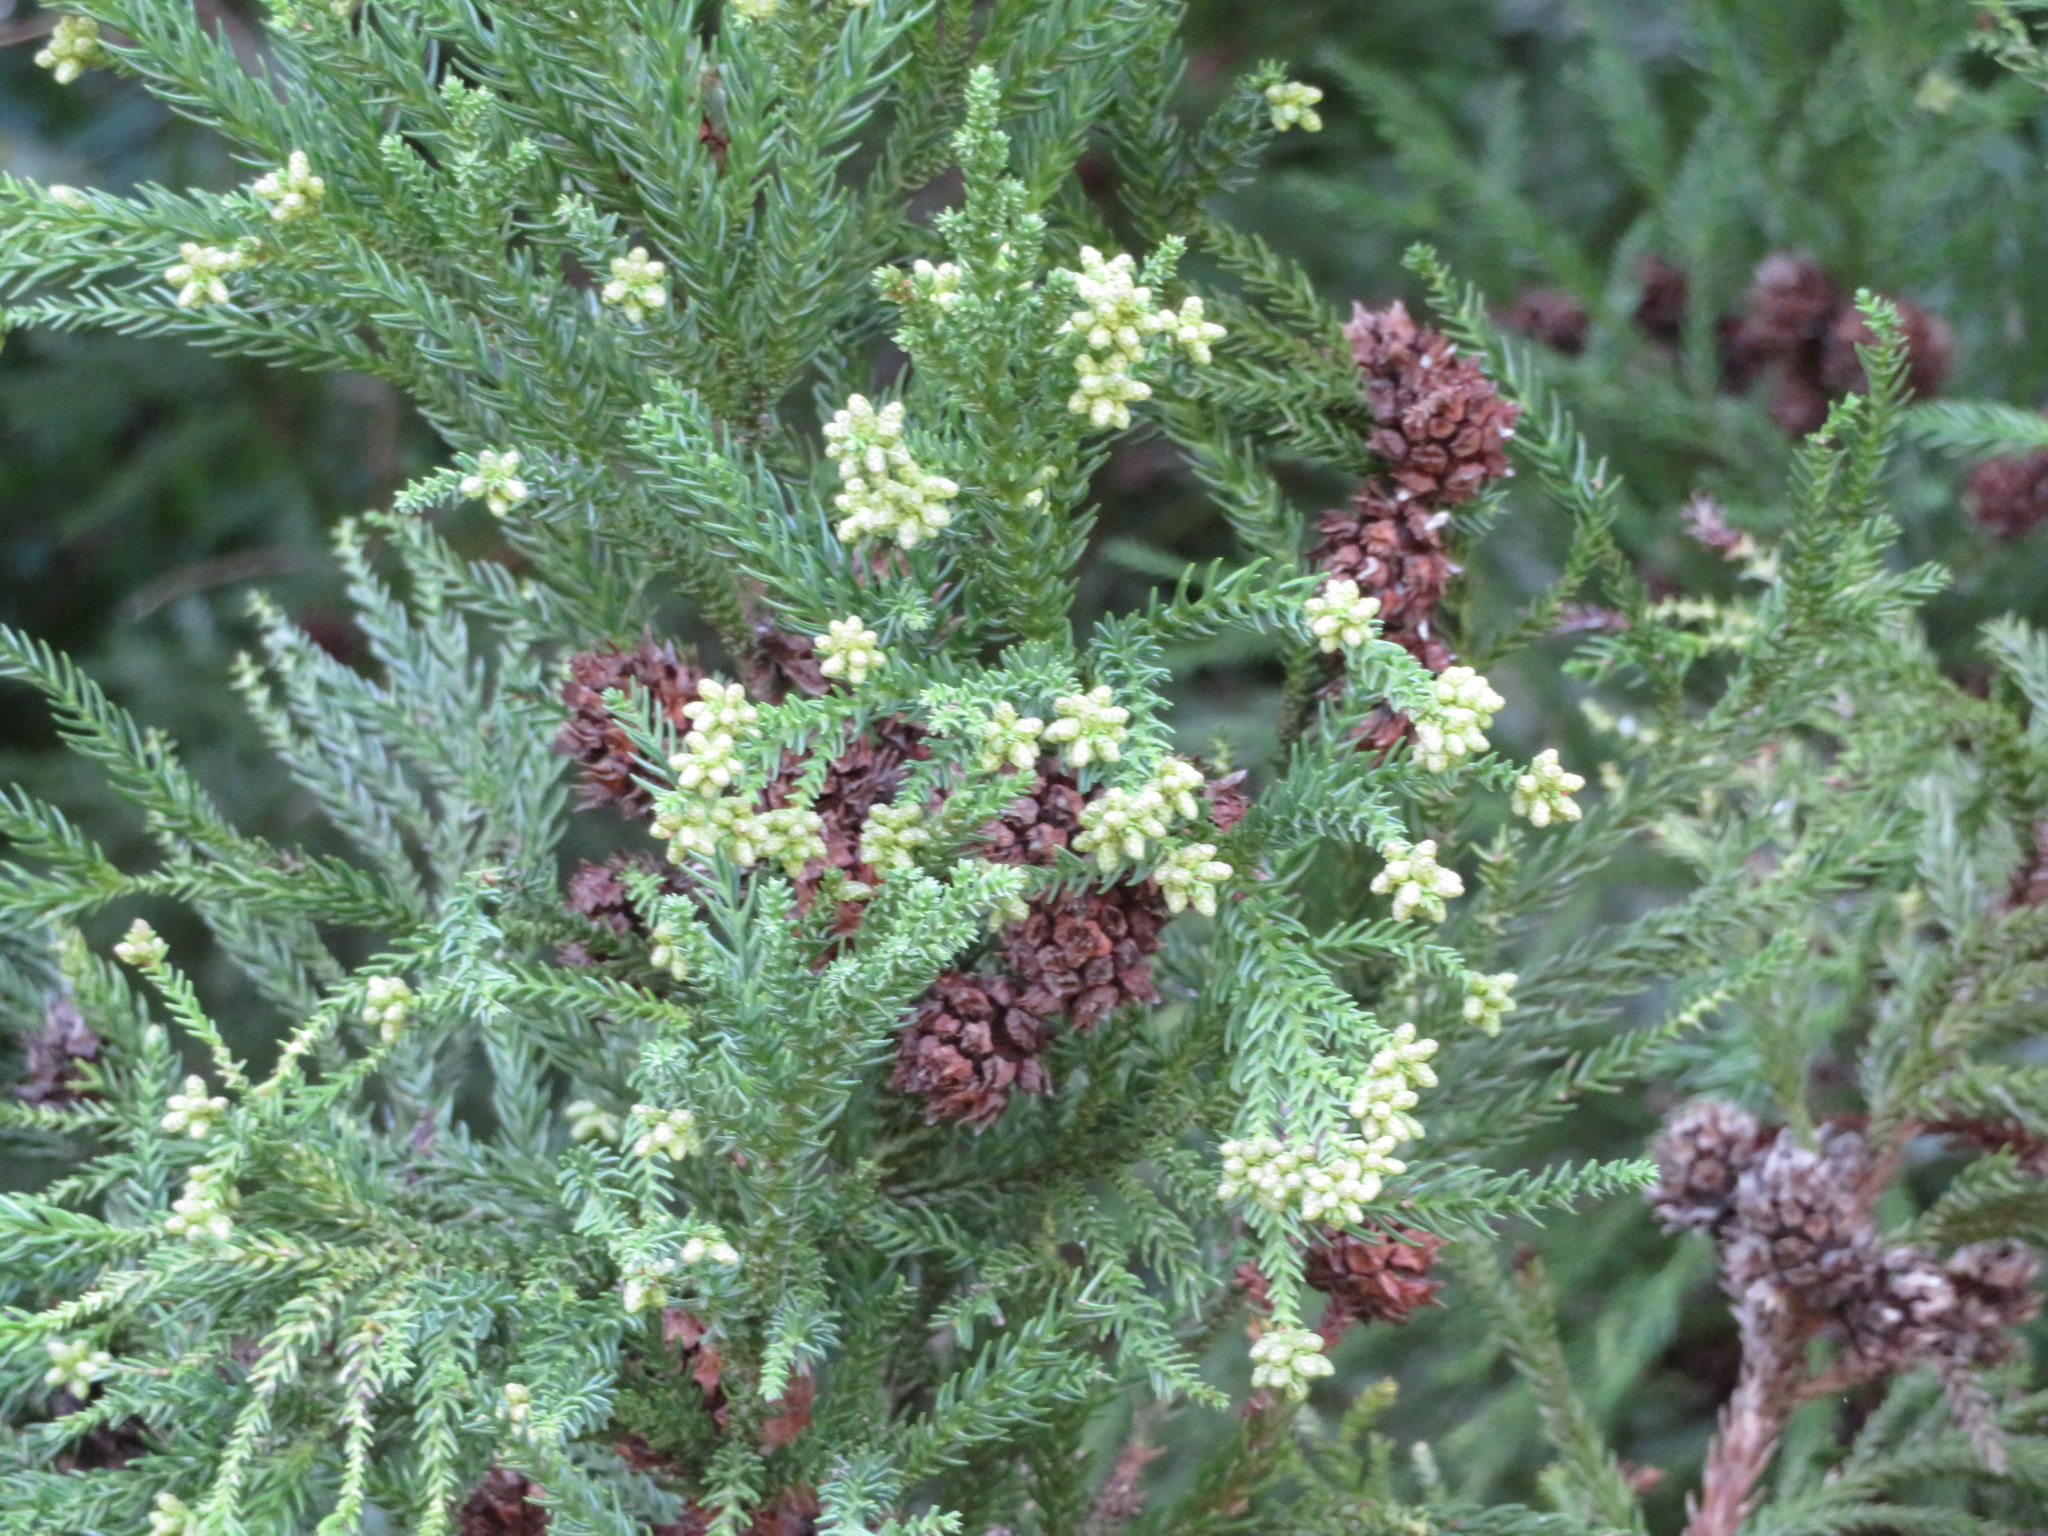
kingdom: Plantae
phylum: Tracheophyta
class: Pinopsida
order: Pinales
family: Cupressaceae
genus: Cryptomeria
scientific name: Cryptomeria japonica
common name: Japanese cedar
